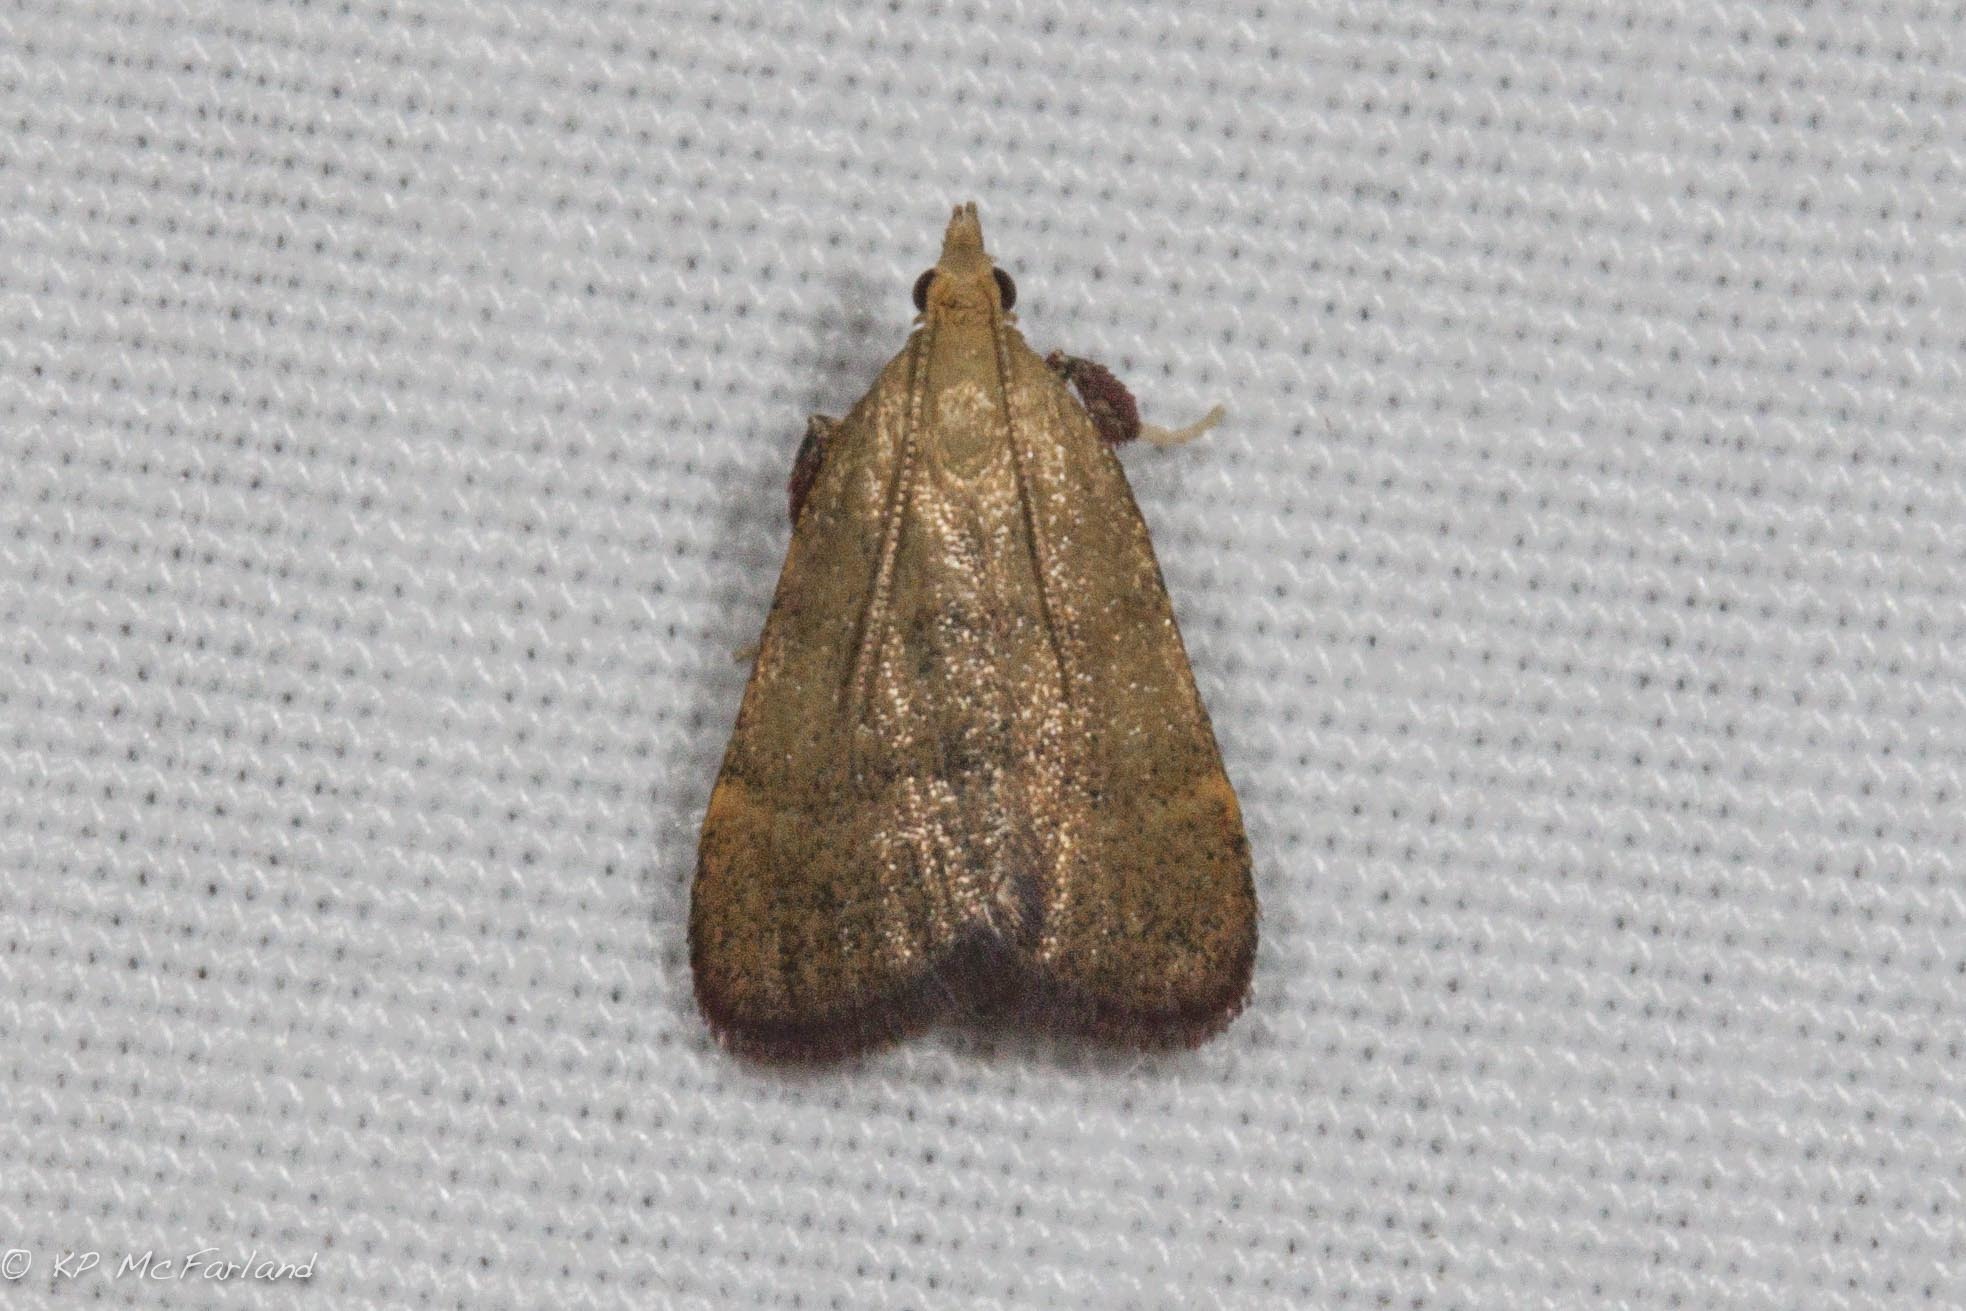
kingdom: Animalia
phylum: Arthropoda
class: Insecta
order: Lepidoptera
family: Pyralidae
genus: Condylolomia
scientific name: Condylolomia participialis
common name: Drab condylolomia moth
